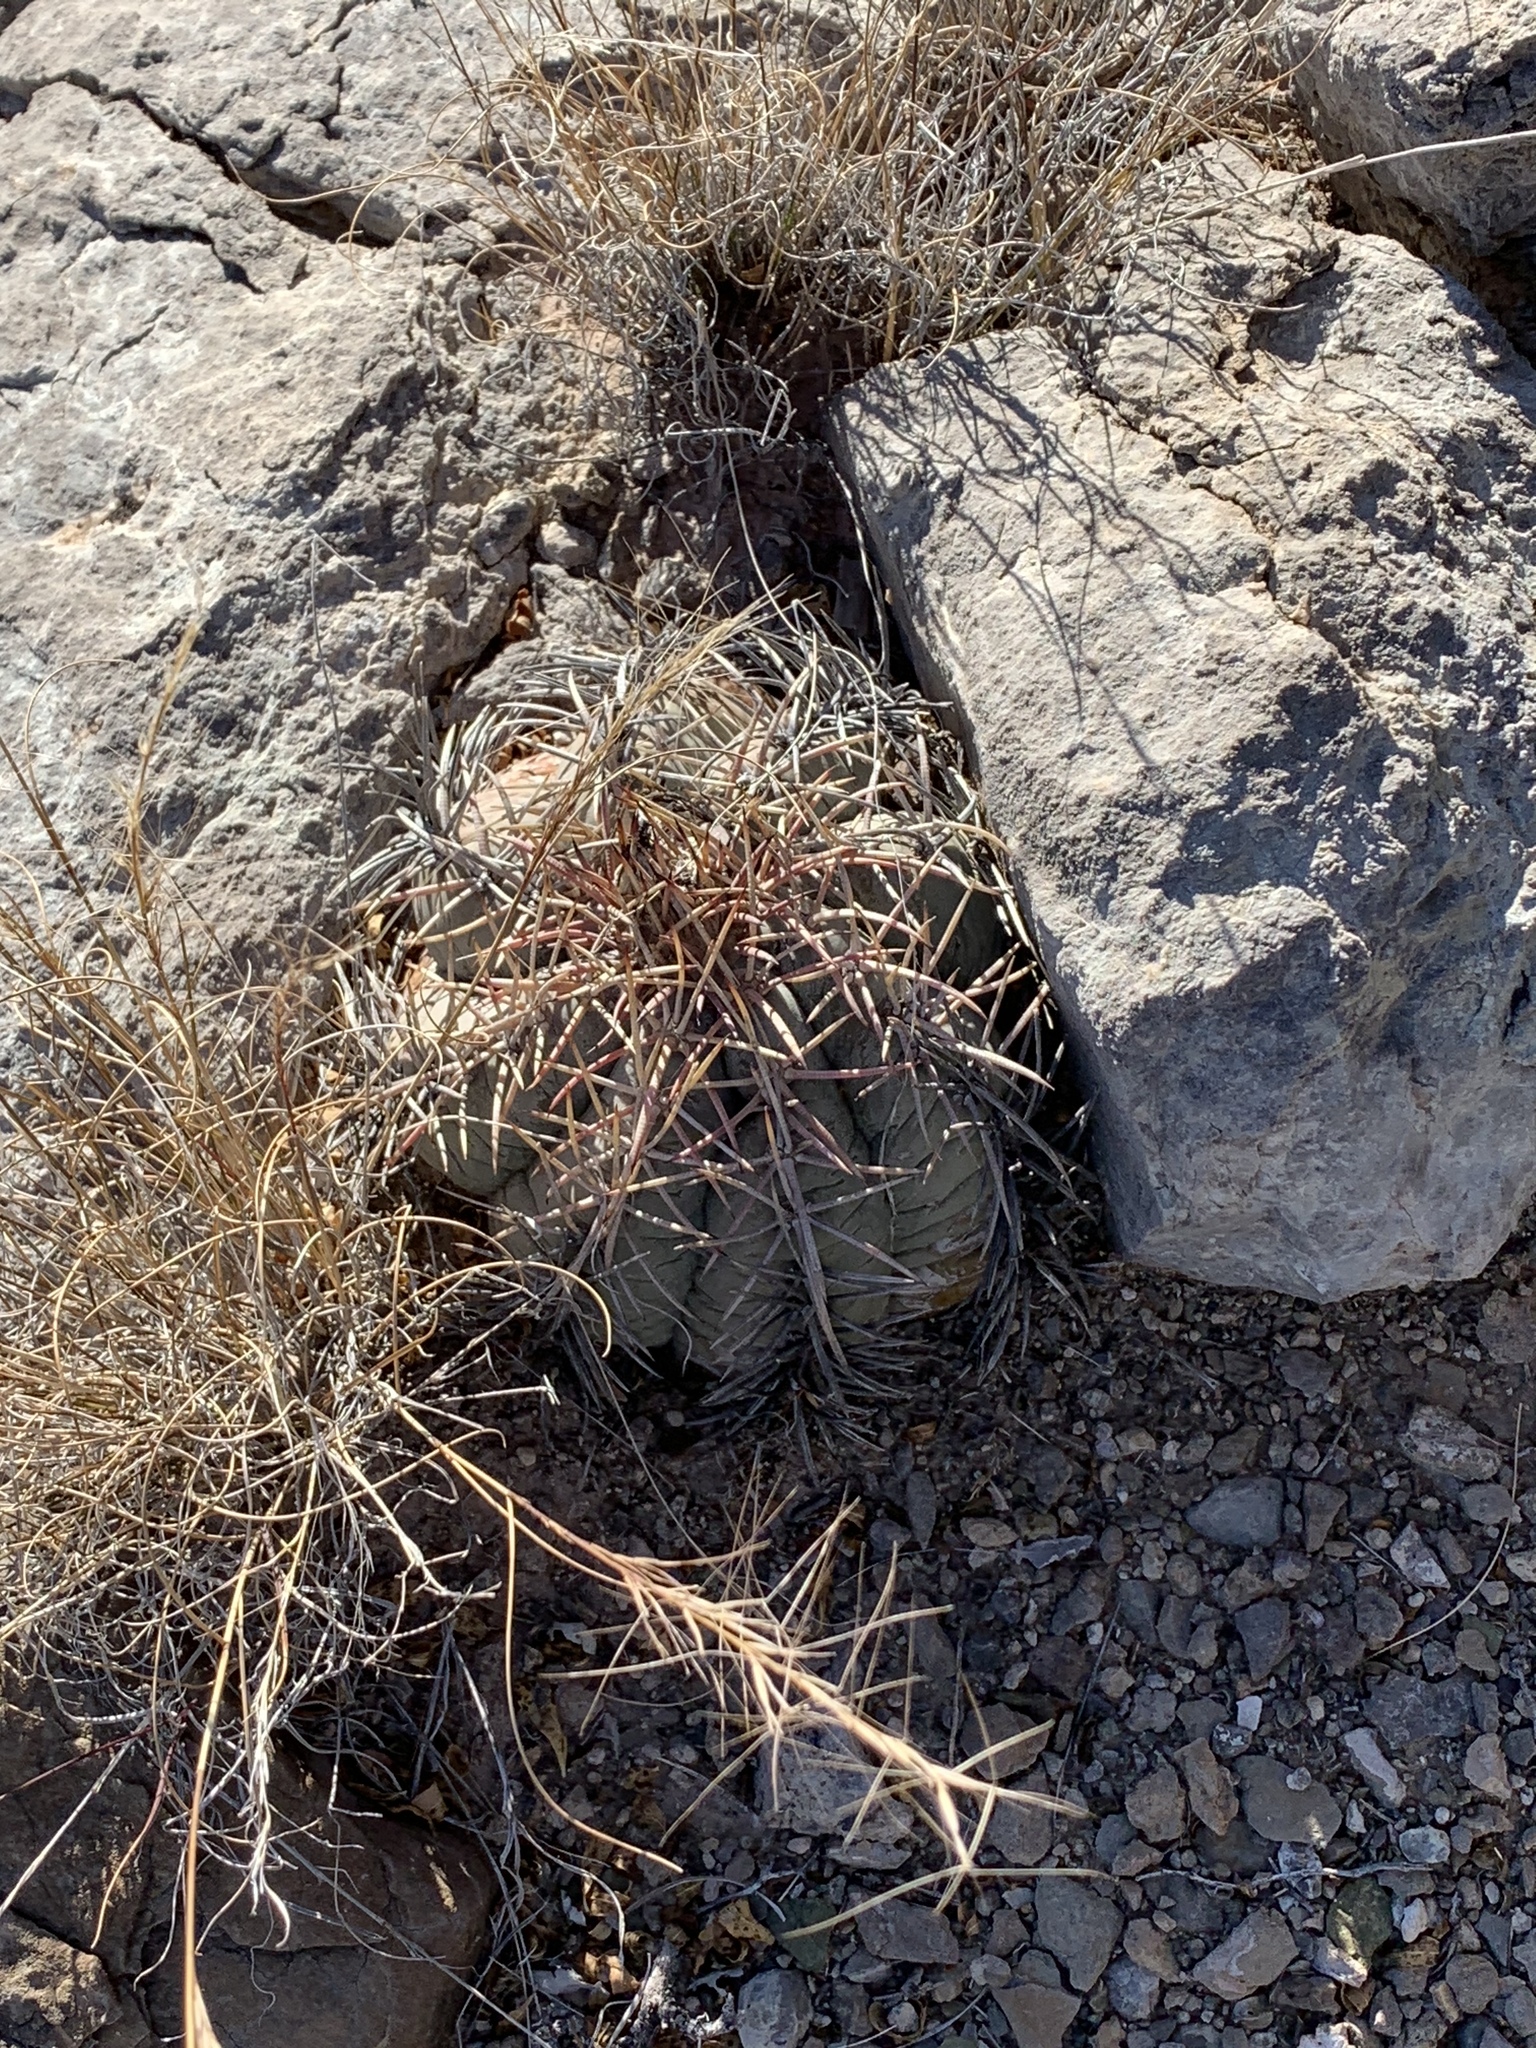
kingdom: Plantae
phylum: Tracheophyta
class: Magnoliopsida
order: Caryophyllales
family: Cactaceae
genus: Echinocactus
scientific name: Echinocactus horizonthalonius
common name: Devilshead
